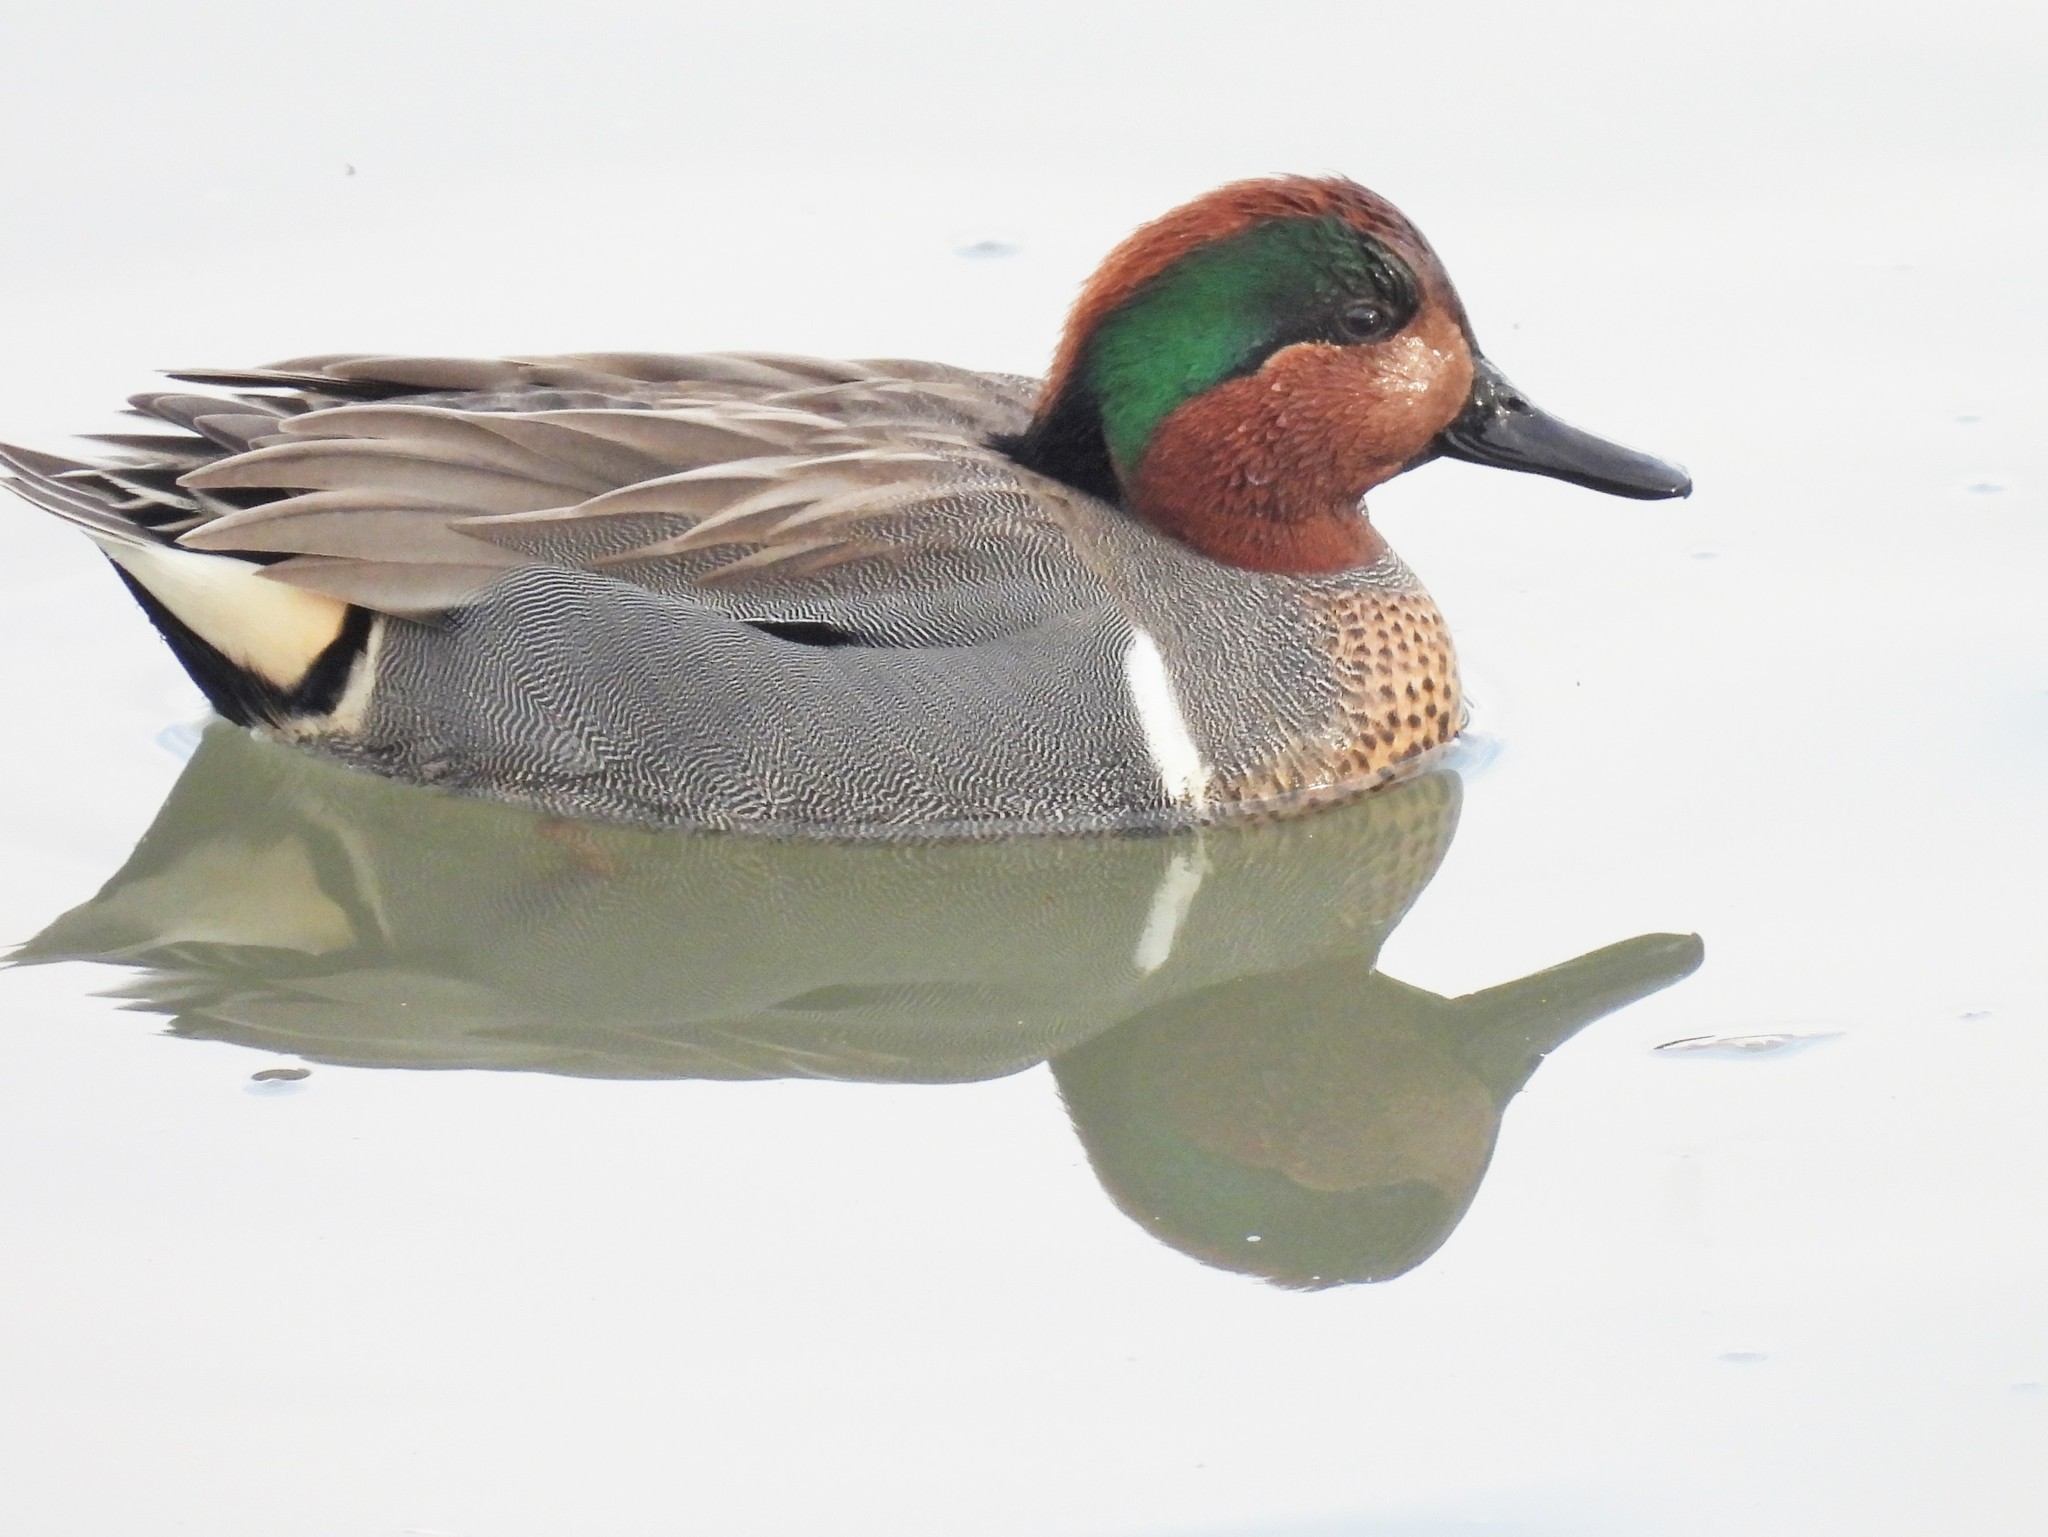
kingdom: Animalia
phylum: Chordata
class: Aves
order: Anseriformes
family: Anatidae
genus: Anas
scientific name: Anas crecca
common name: Eurasian teal
